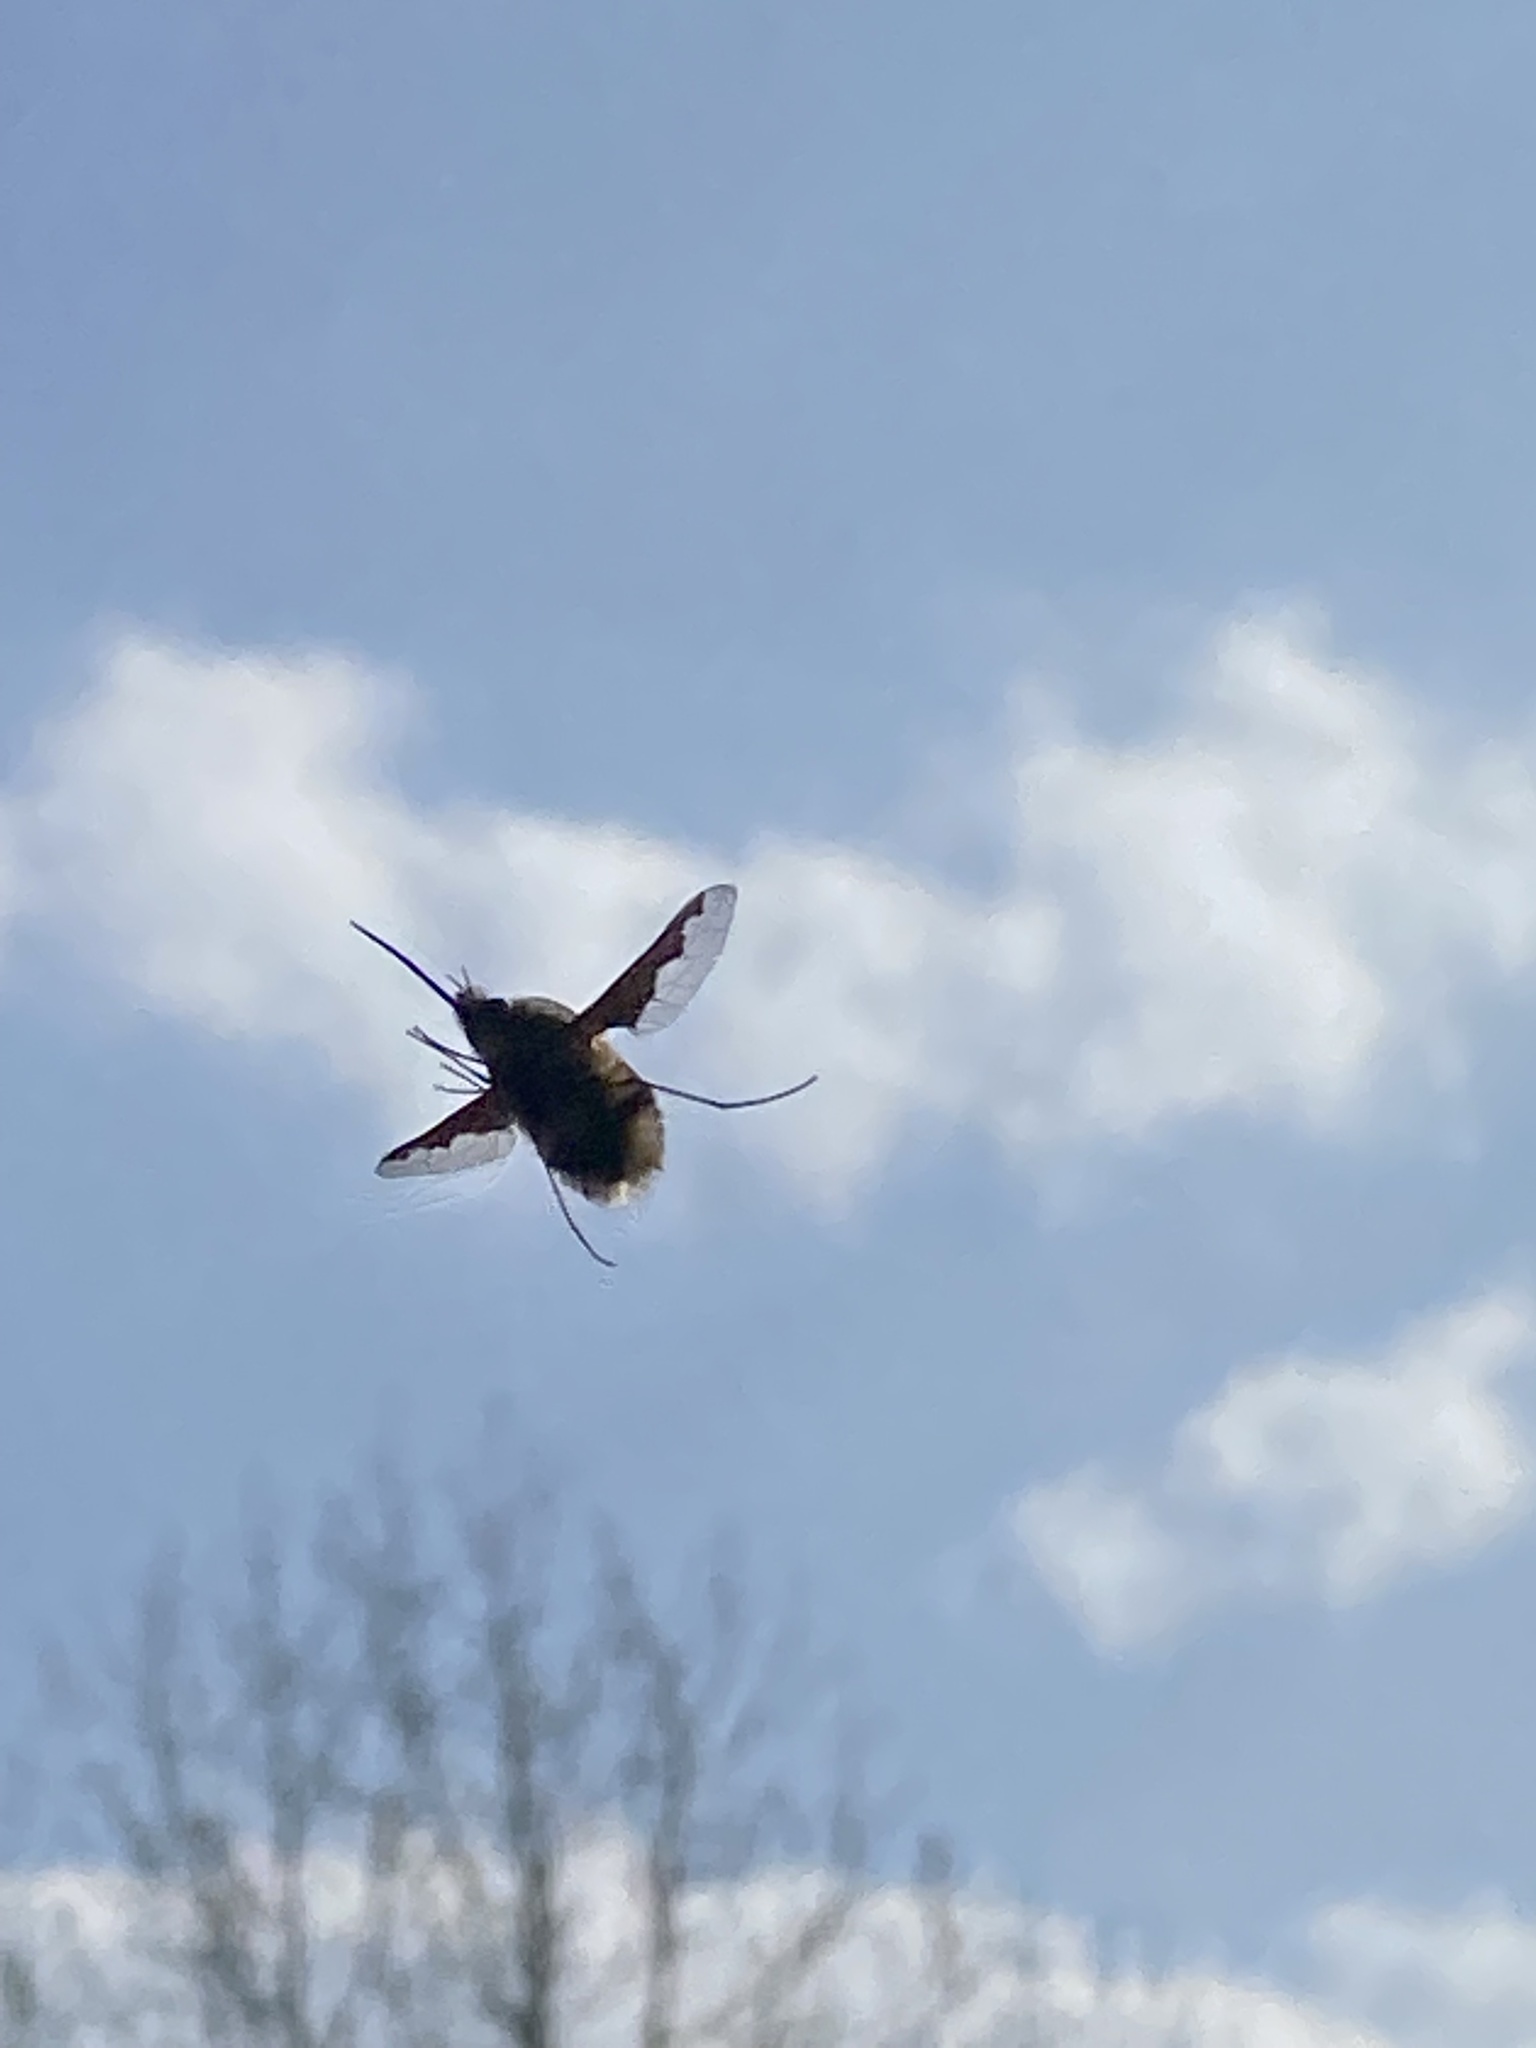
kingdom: Animalia
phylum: Arthropoda
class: Insecta
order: Diptera
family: Bombyliidae
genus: Bombylius
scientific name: Bombylius major
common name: Bee fly
